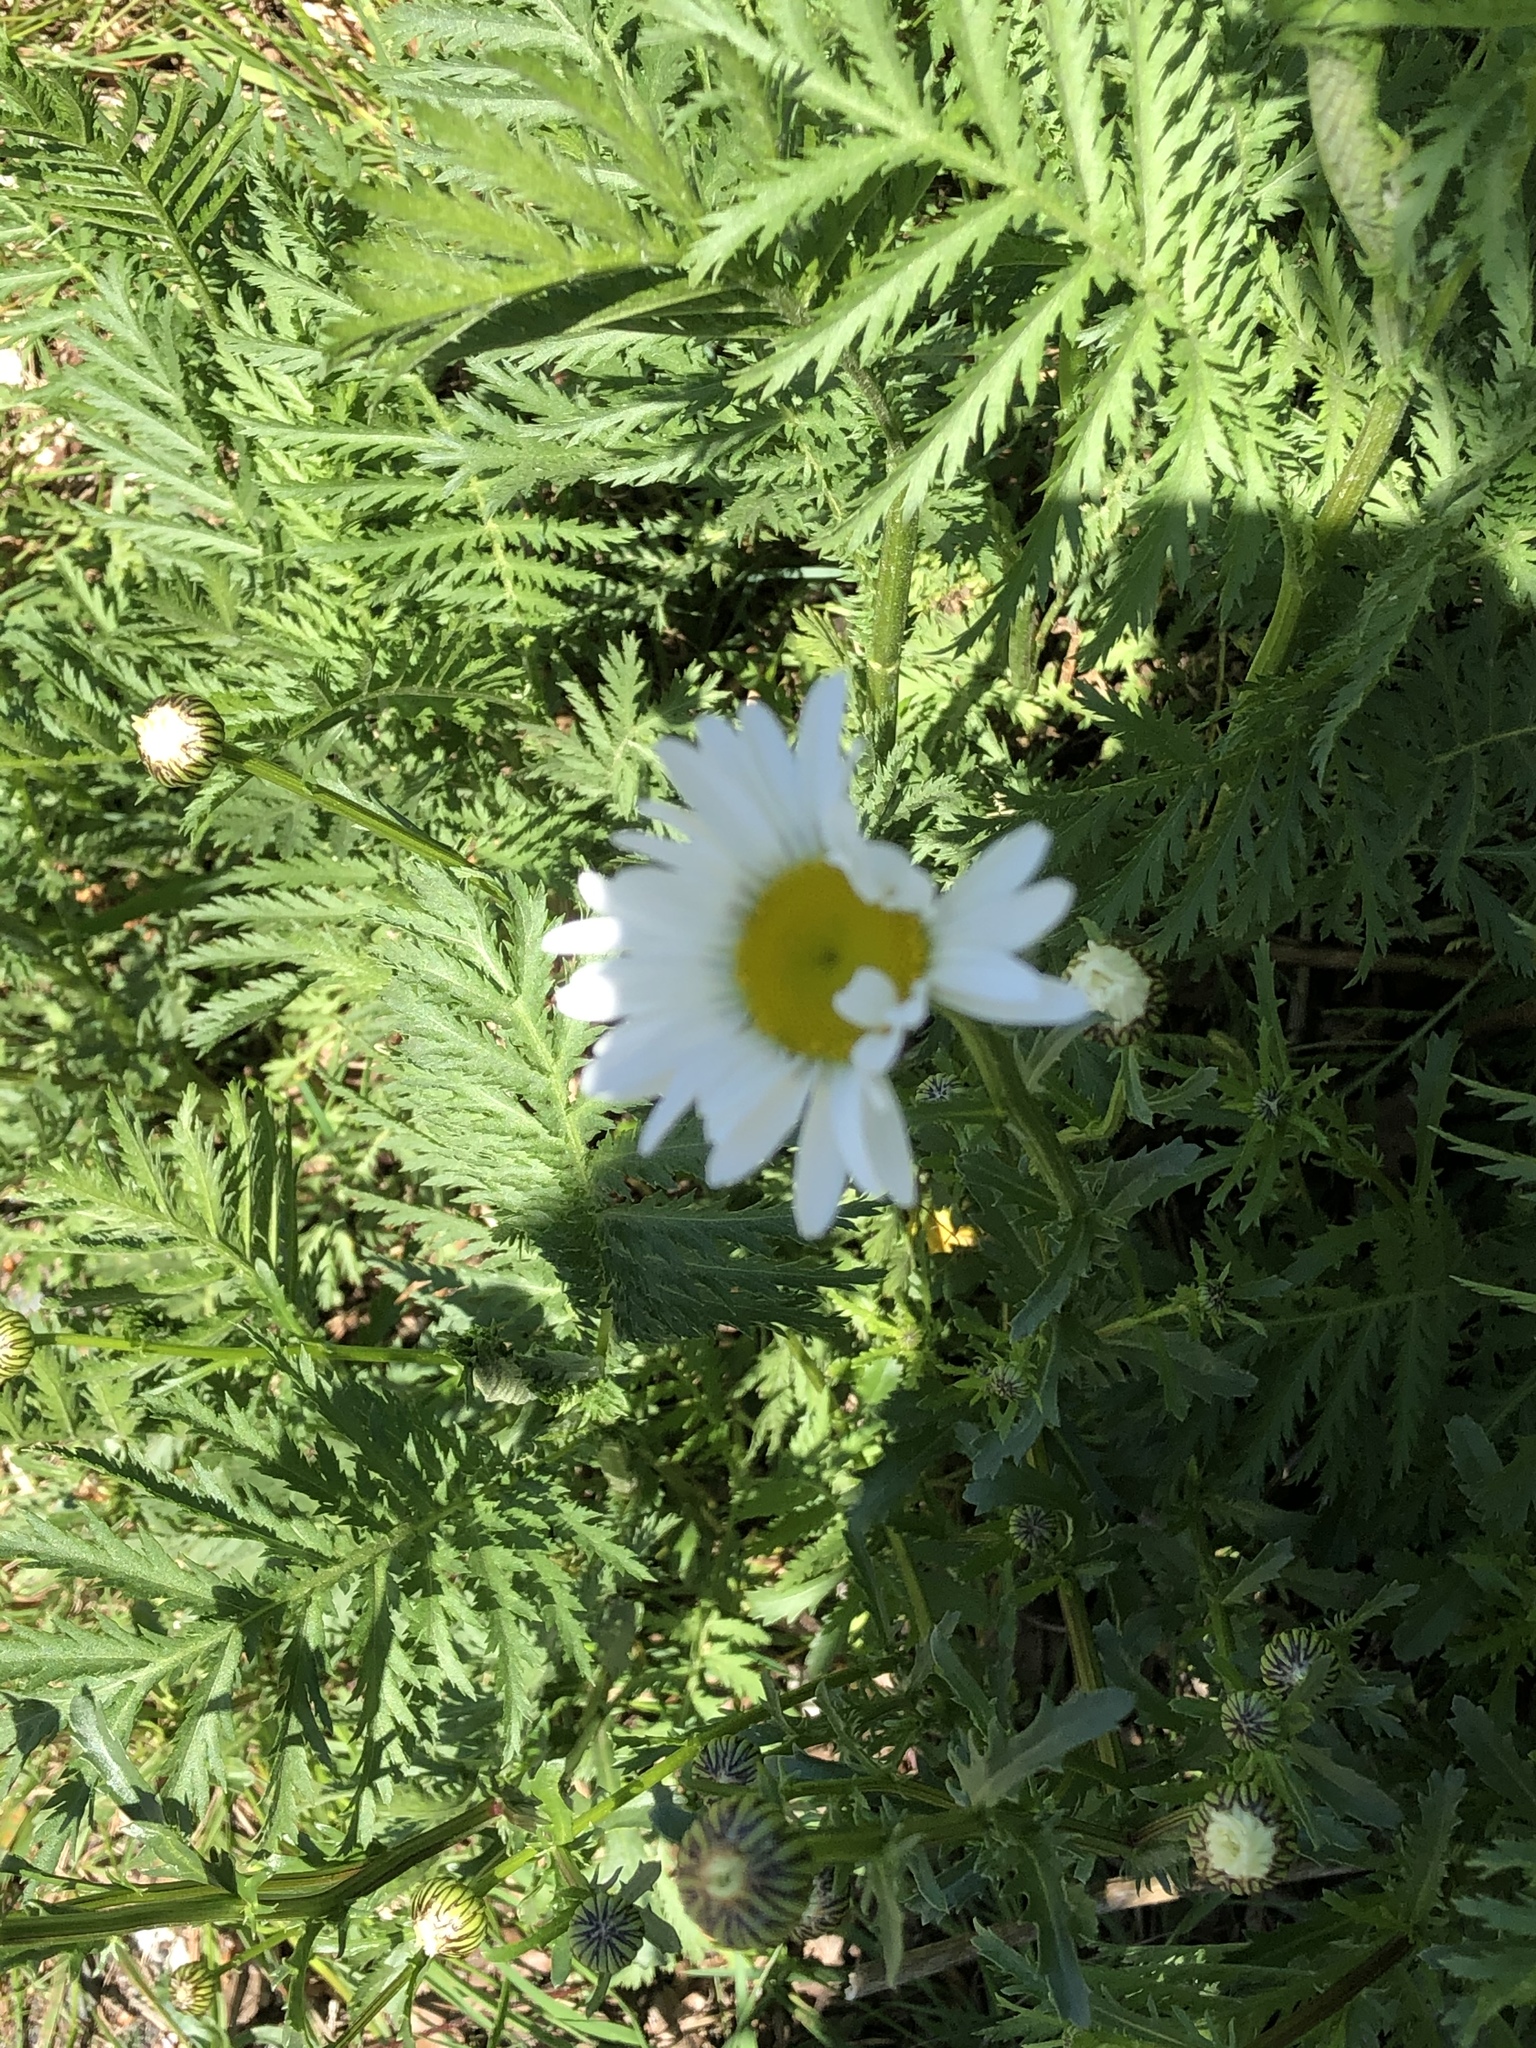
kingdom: Plantae
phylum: Tracheophyta
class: Magnoliopsida
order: Asterales
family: Asteraceae
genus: Leucanthemum
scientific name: Leucanthemum vulgare
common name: Oxeye daisy
